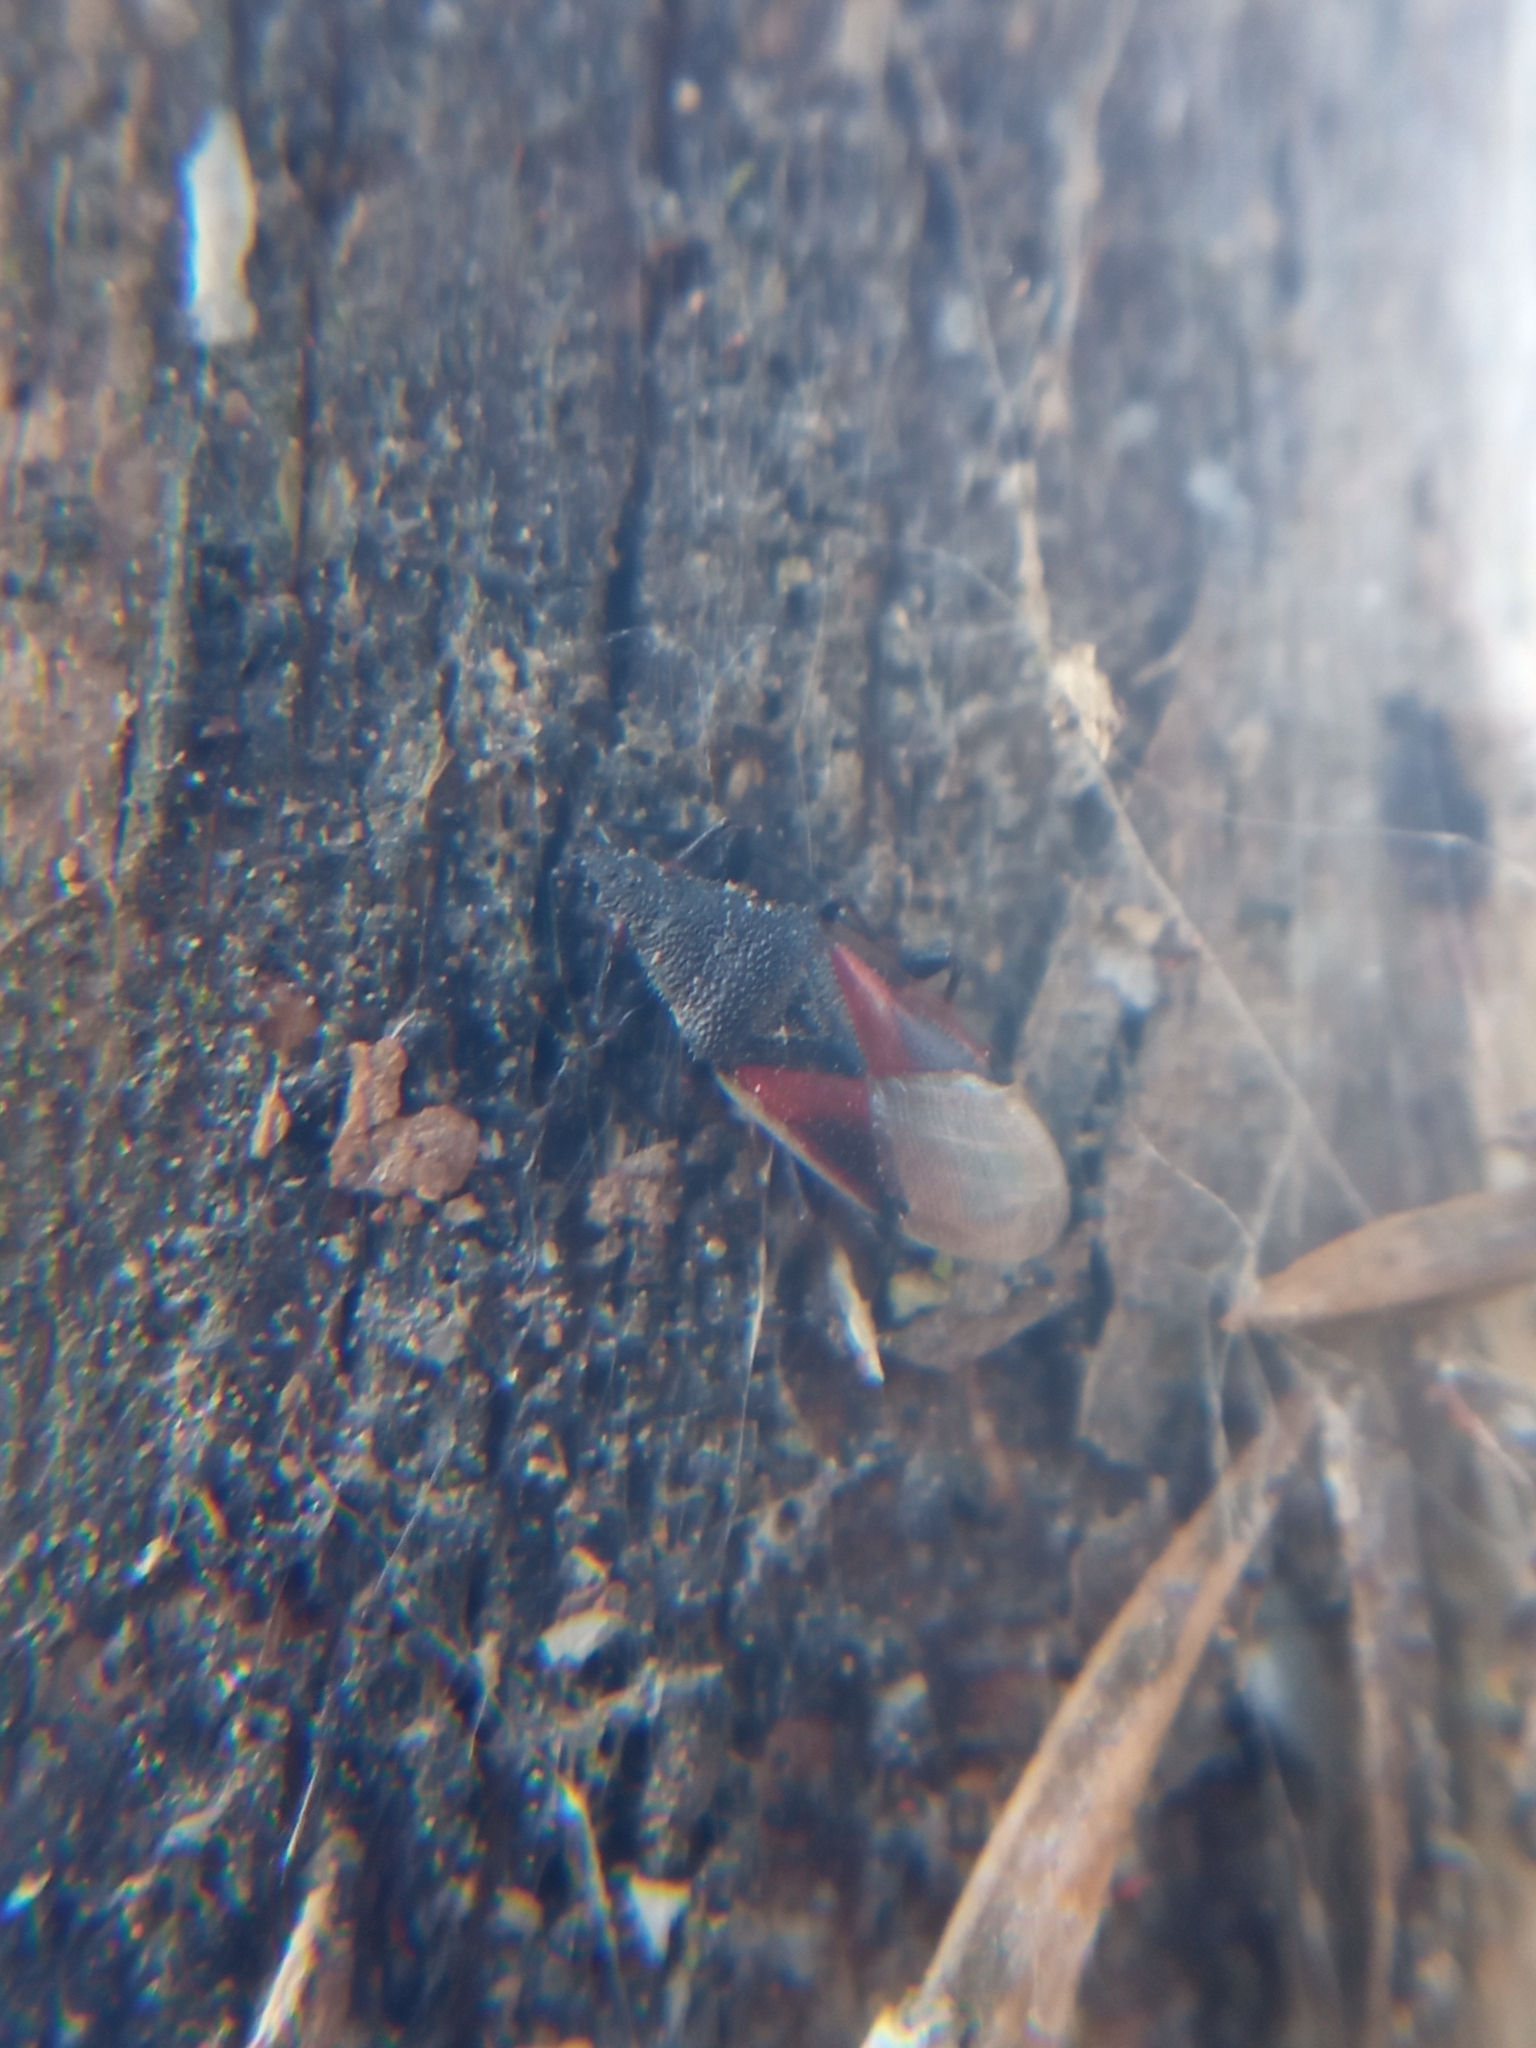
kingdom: Animalia
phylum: Arthropoda
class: Insecta
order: Hemiptera
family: Oxycarenidae
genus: Oxycarenus
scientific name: Oxycarenus lavaterae
